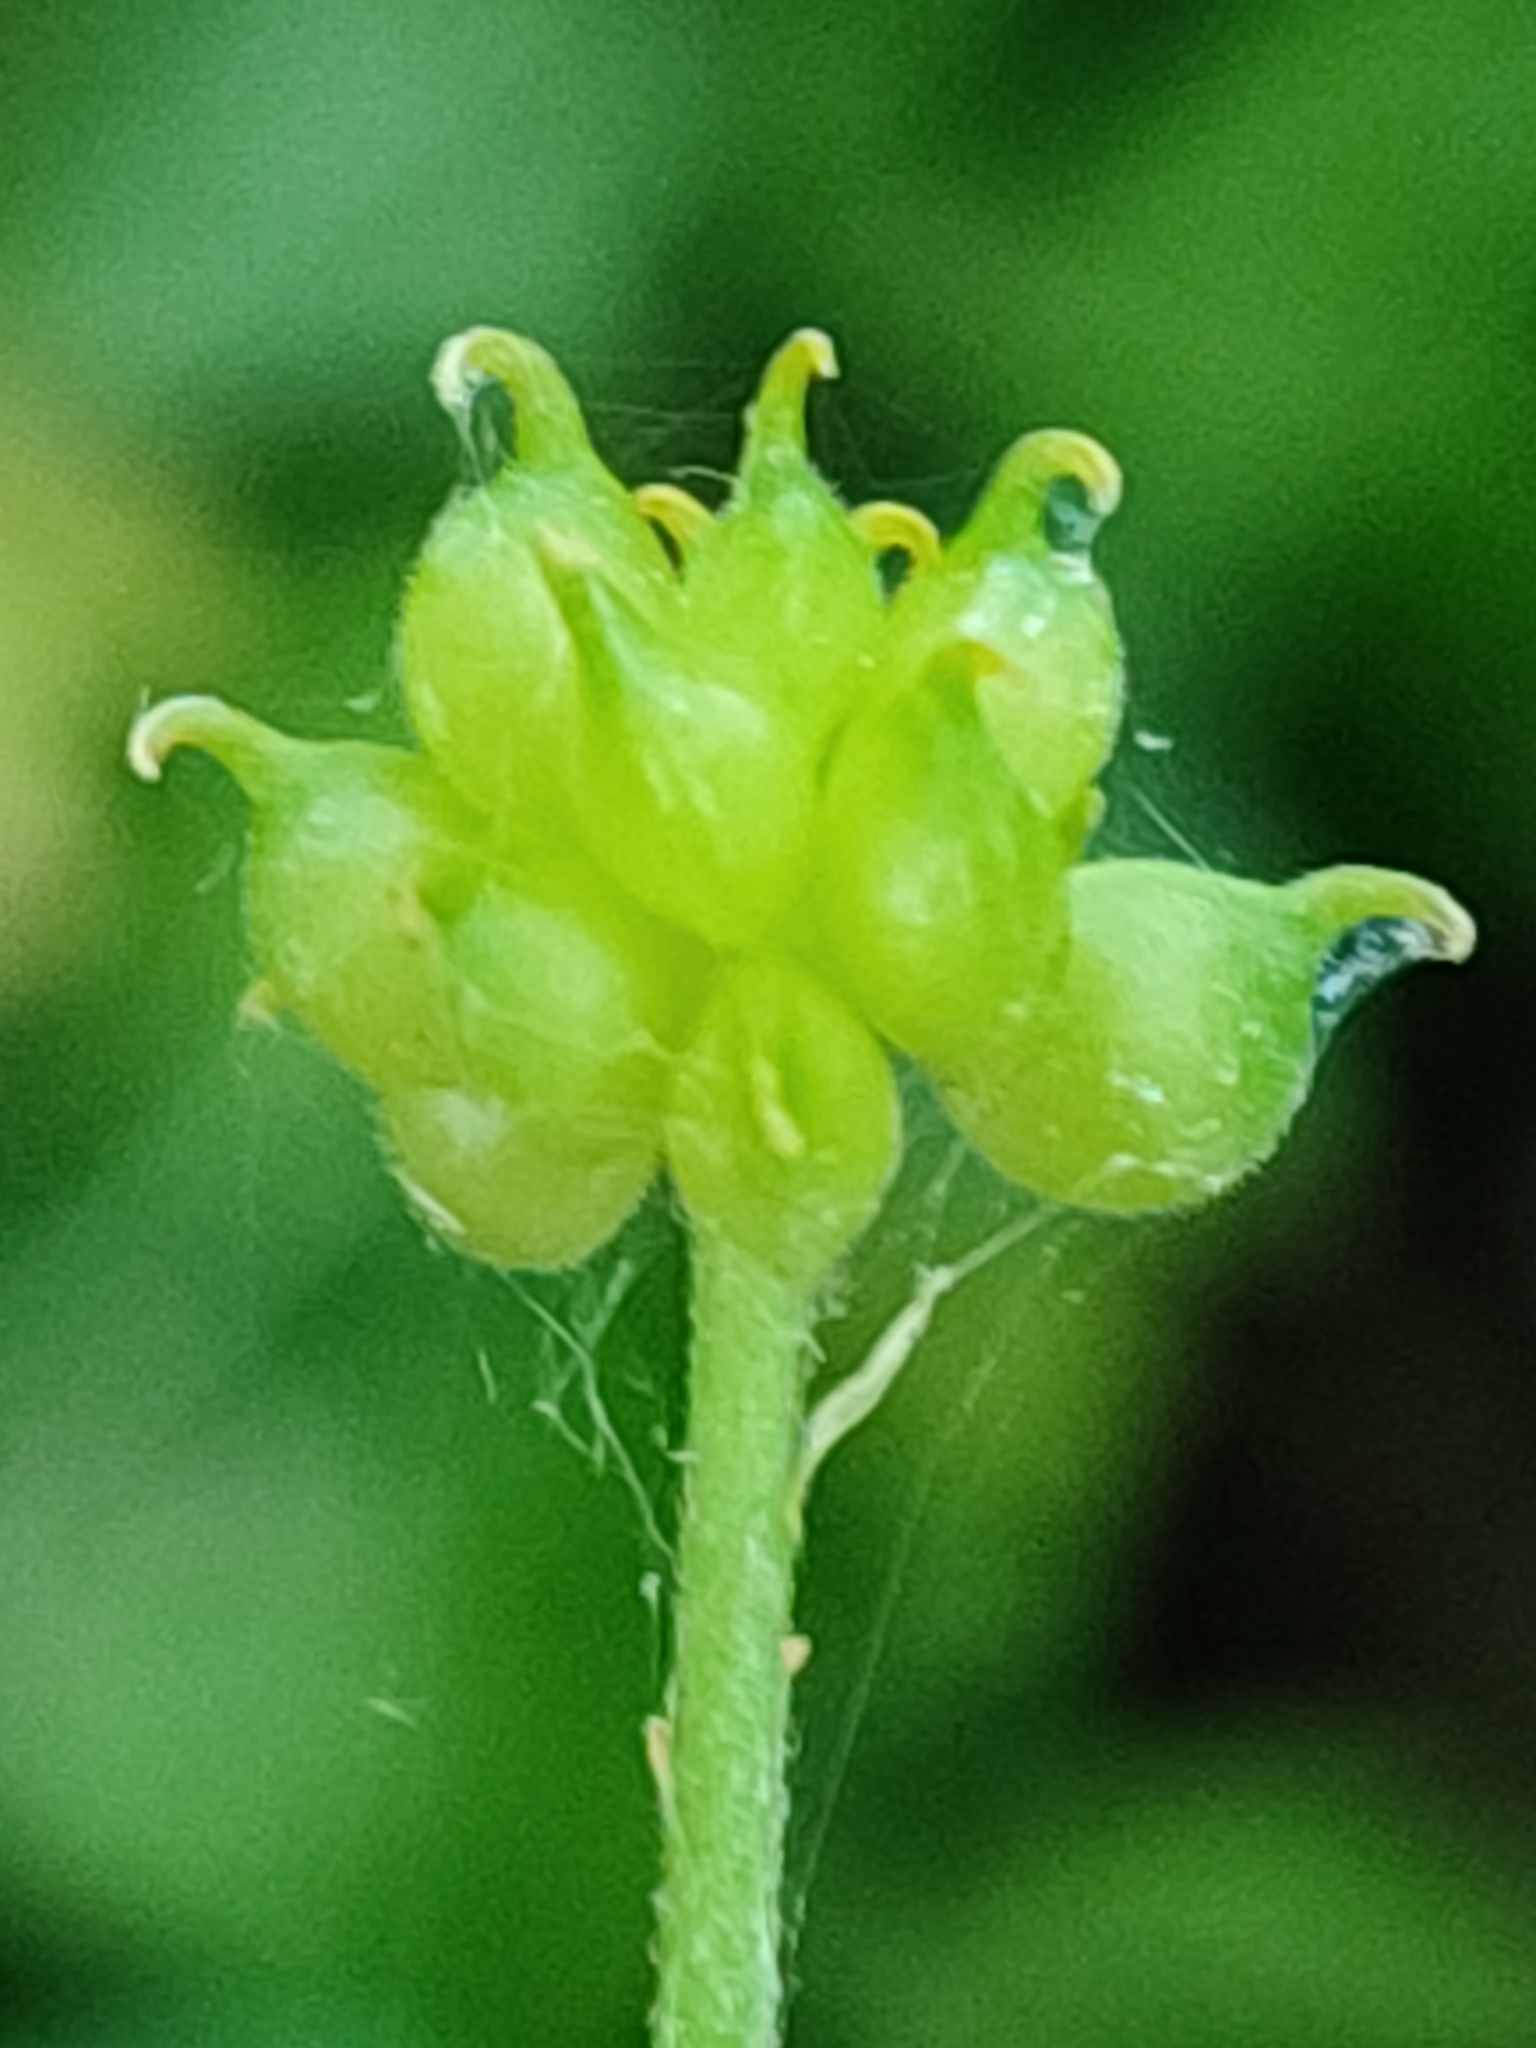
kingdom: Plantae
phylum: Tracheophyta
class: Magnoliopsida
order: Ranunculales
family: Ranunculaceae
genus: Ranunculus
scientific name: Ranunculus auricomus
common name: Goldilocks buttercup
